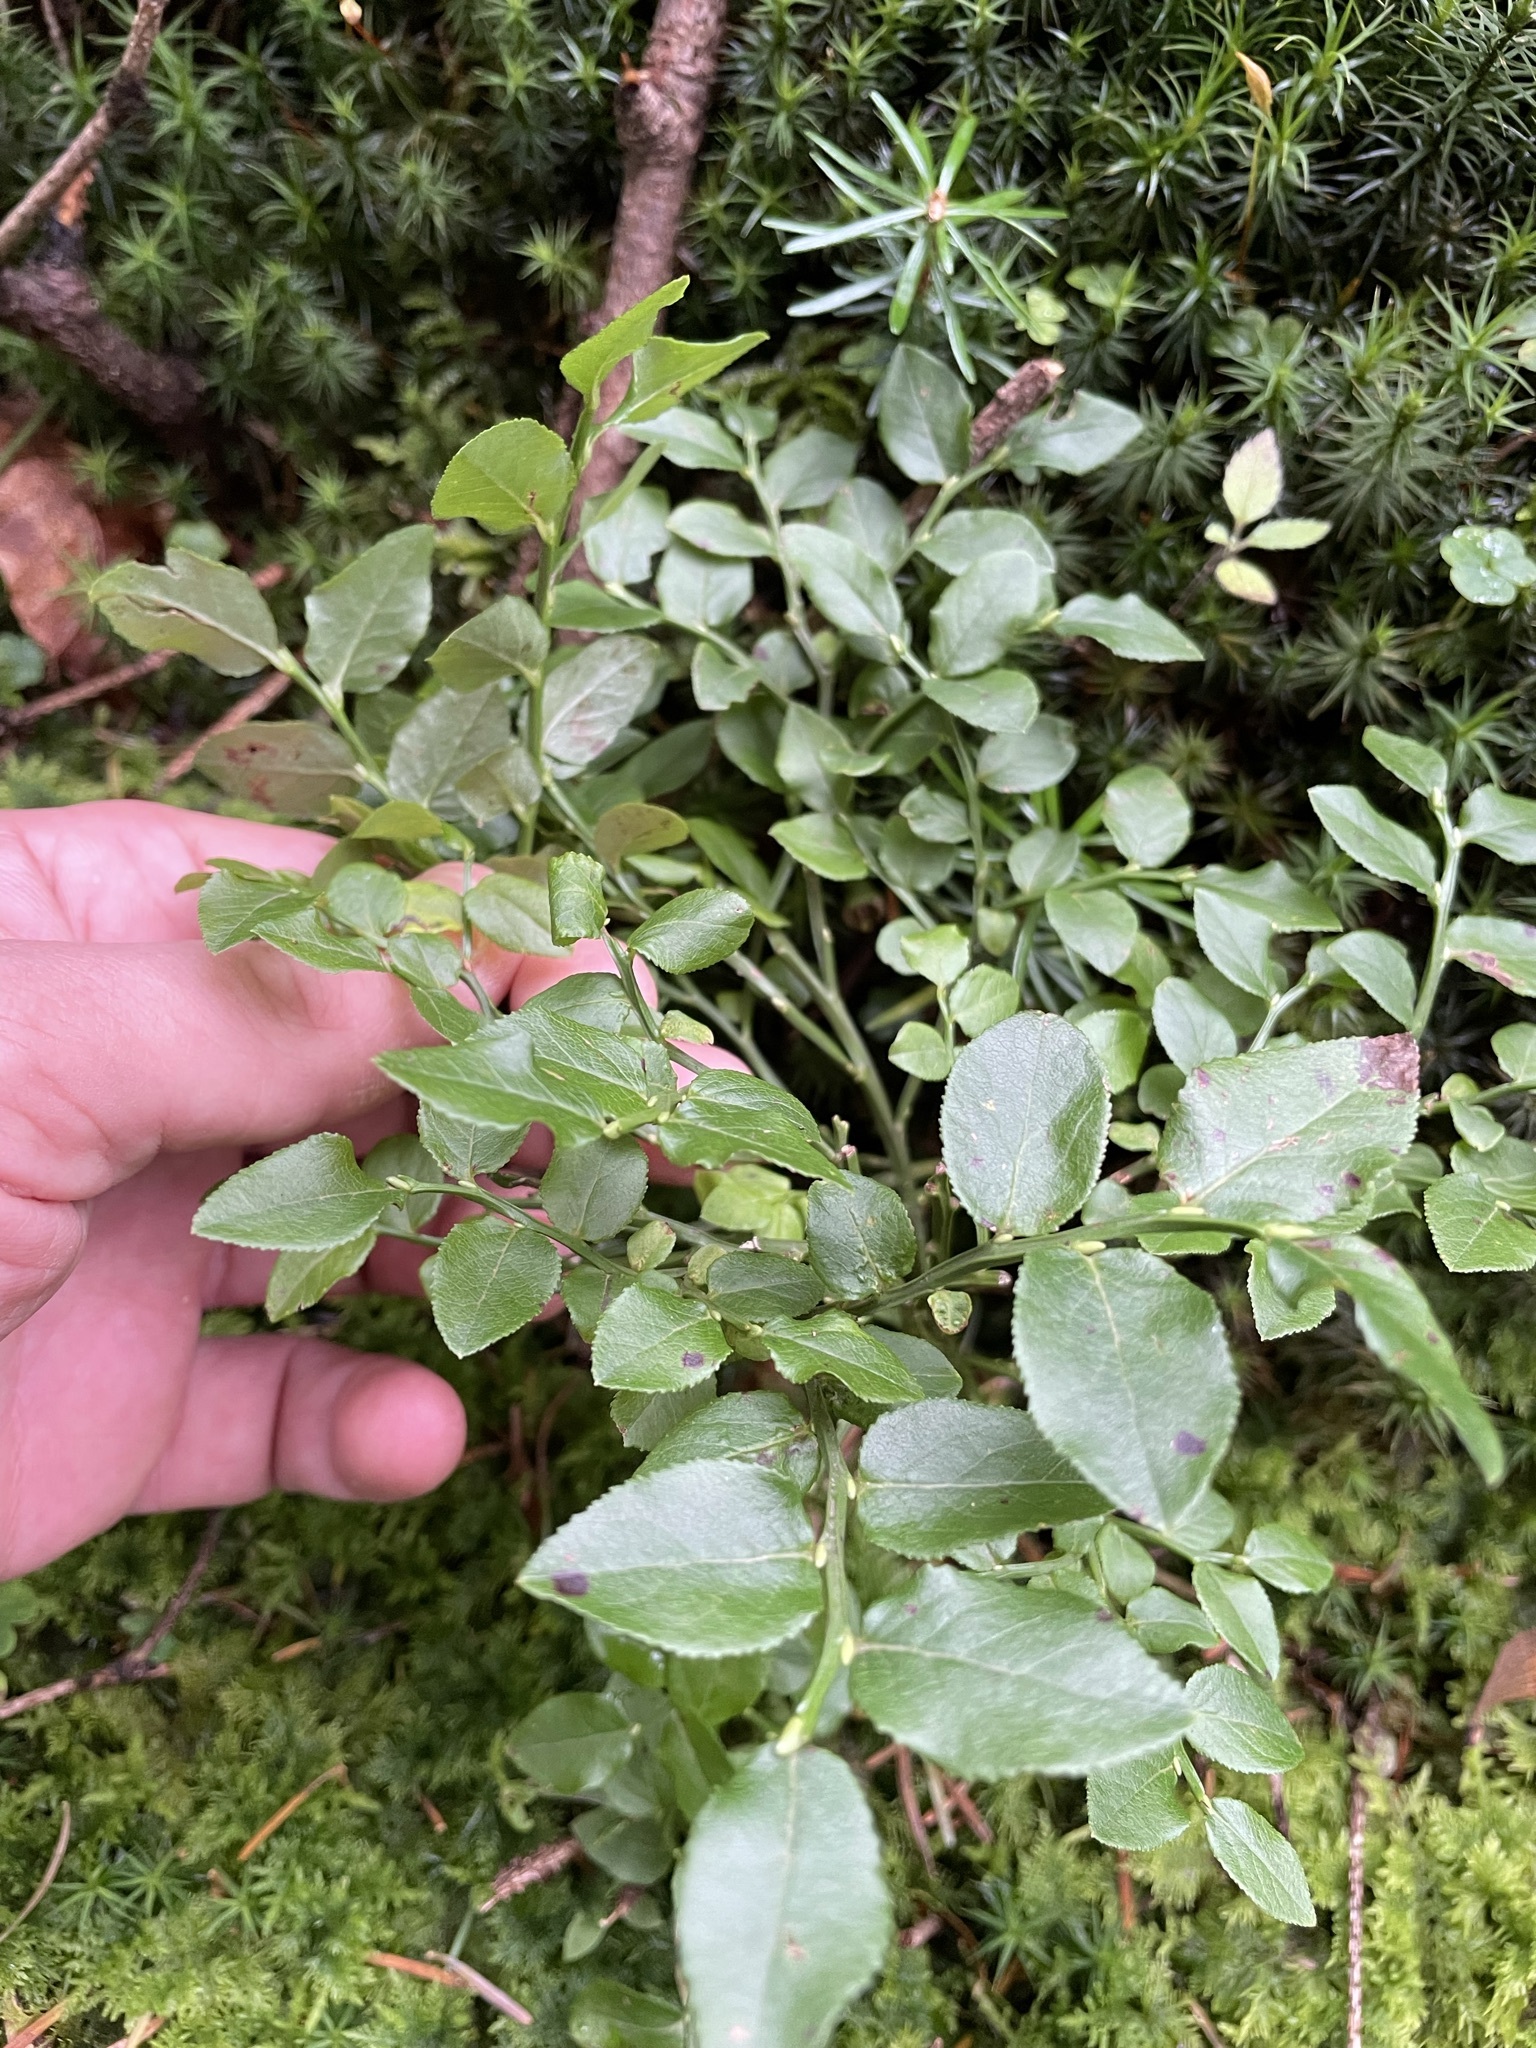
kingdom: Plantae
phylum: Tracheophyta
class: Magnoliopsida
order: Ericales
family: Ericaceae
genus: Vaccinium
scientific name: Vaccinium myrtillus
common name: Bilberry
